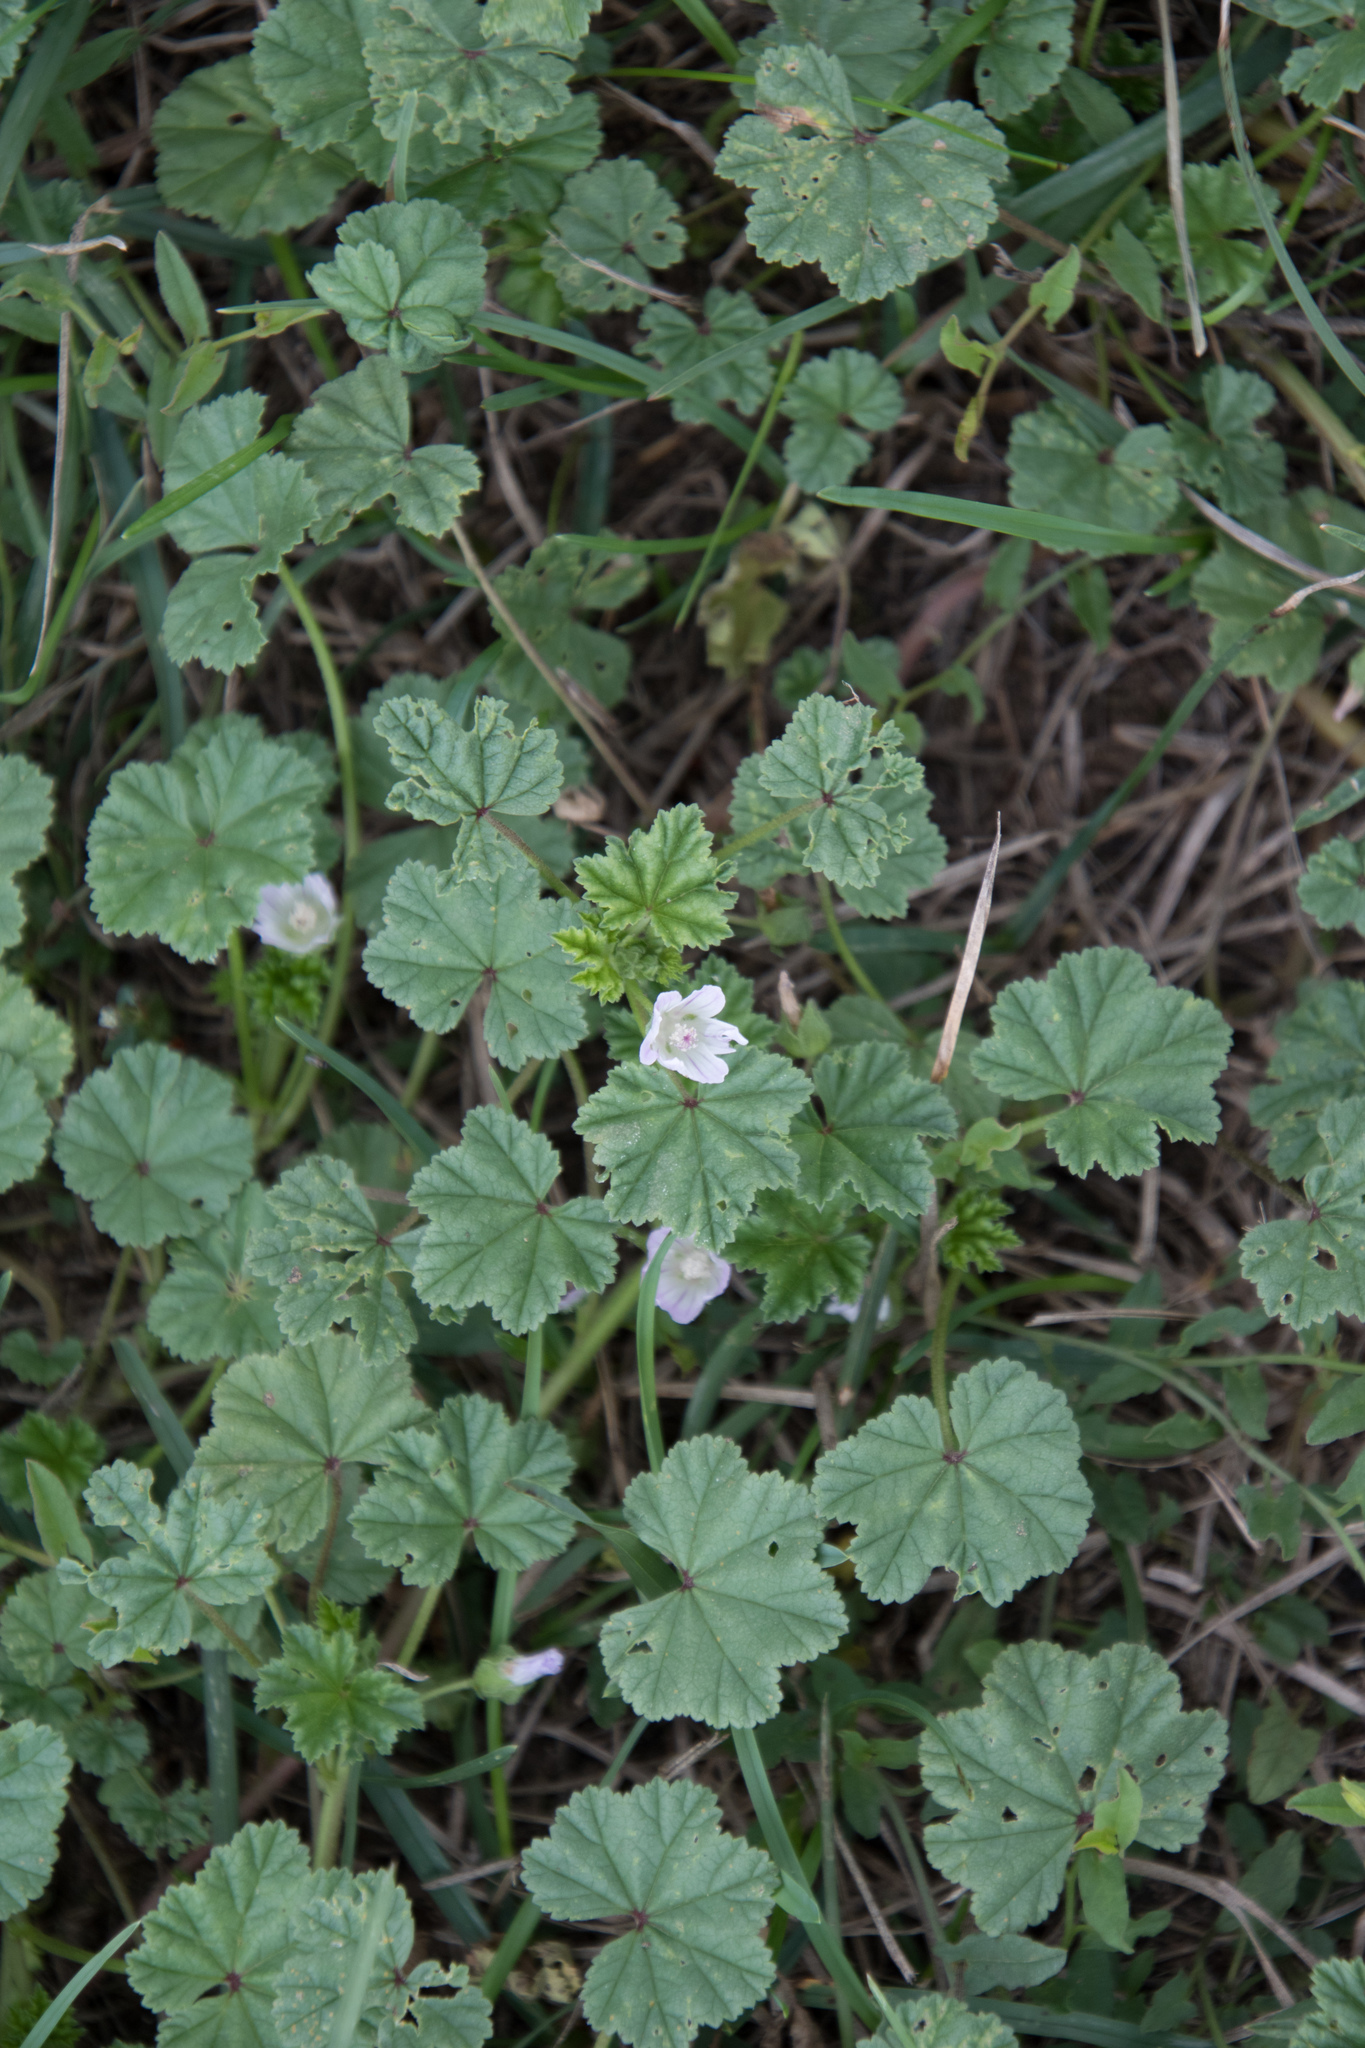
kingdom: Plantae
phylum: Tracheophyta
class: Magnoliopsida
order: Malvales
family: Malvaceae
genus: Malva
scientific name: Malva neglecta
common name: Common mallow
